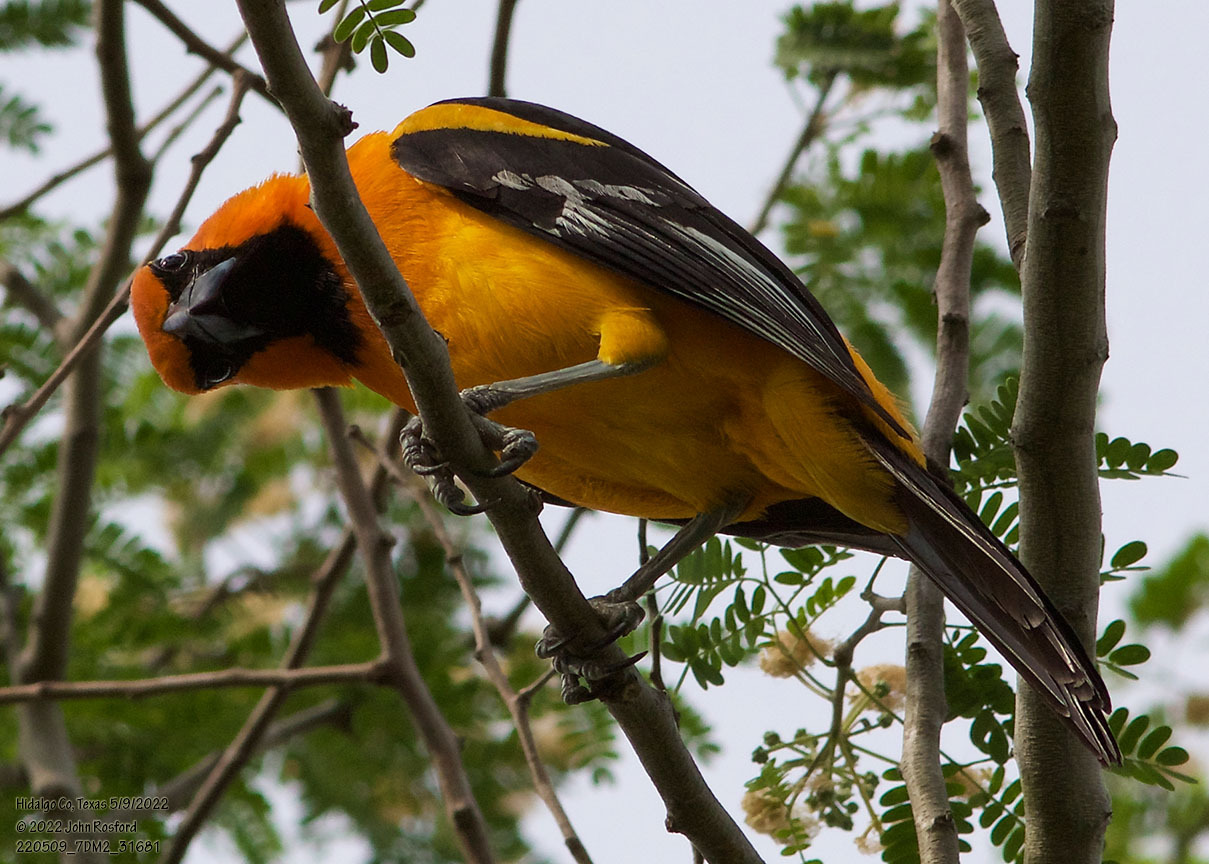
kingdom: Animalia
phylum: Chordata
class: Aves
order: Passeriformes
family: Icteridae
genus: Icterus
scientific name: Icterus gularis
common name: Altamira oriole
